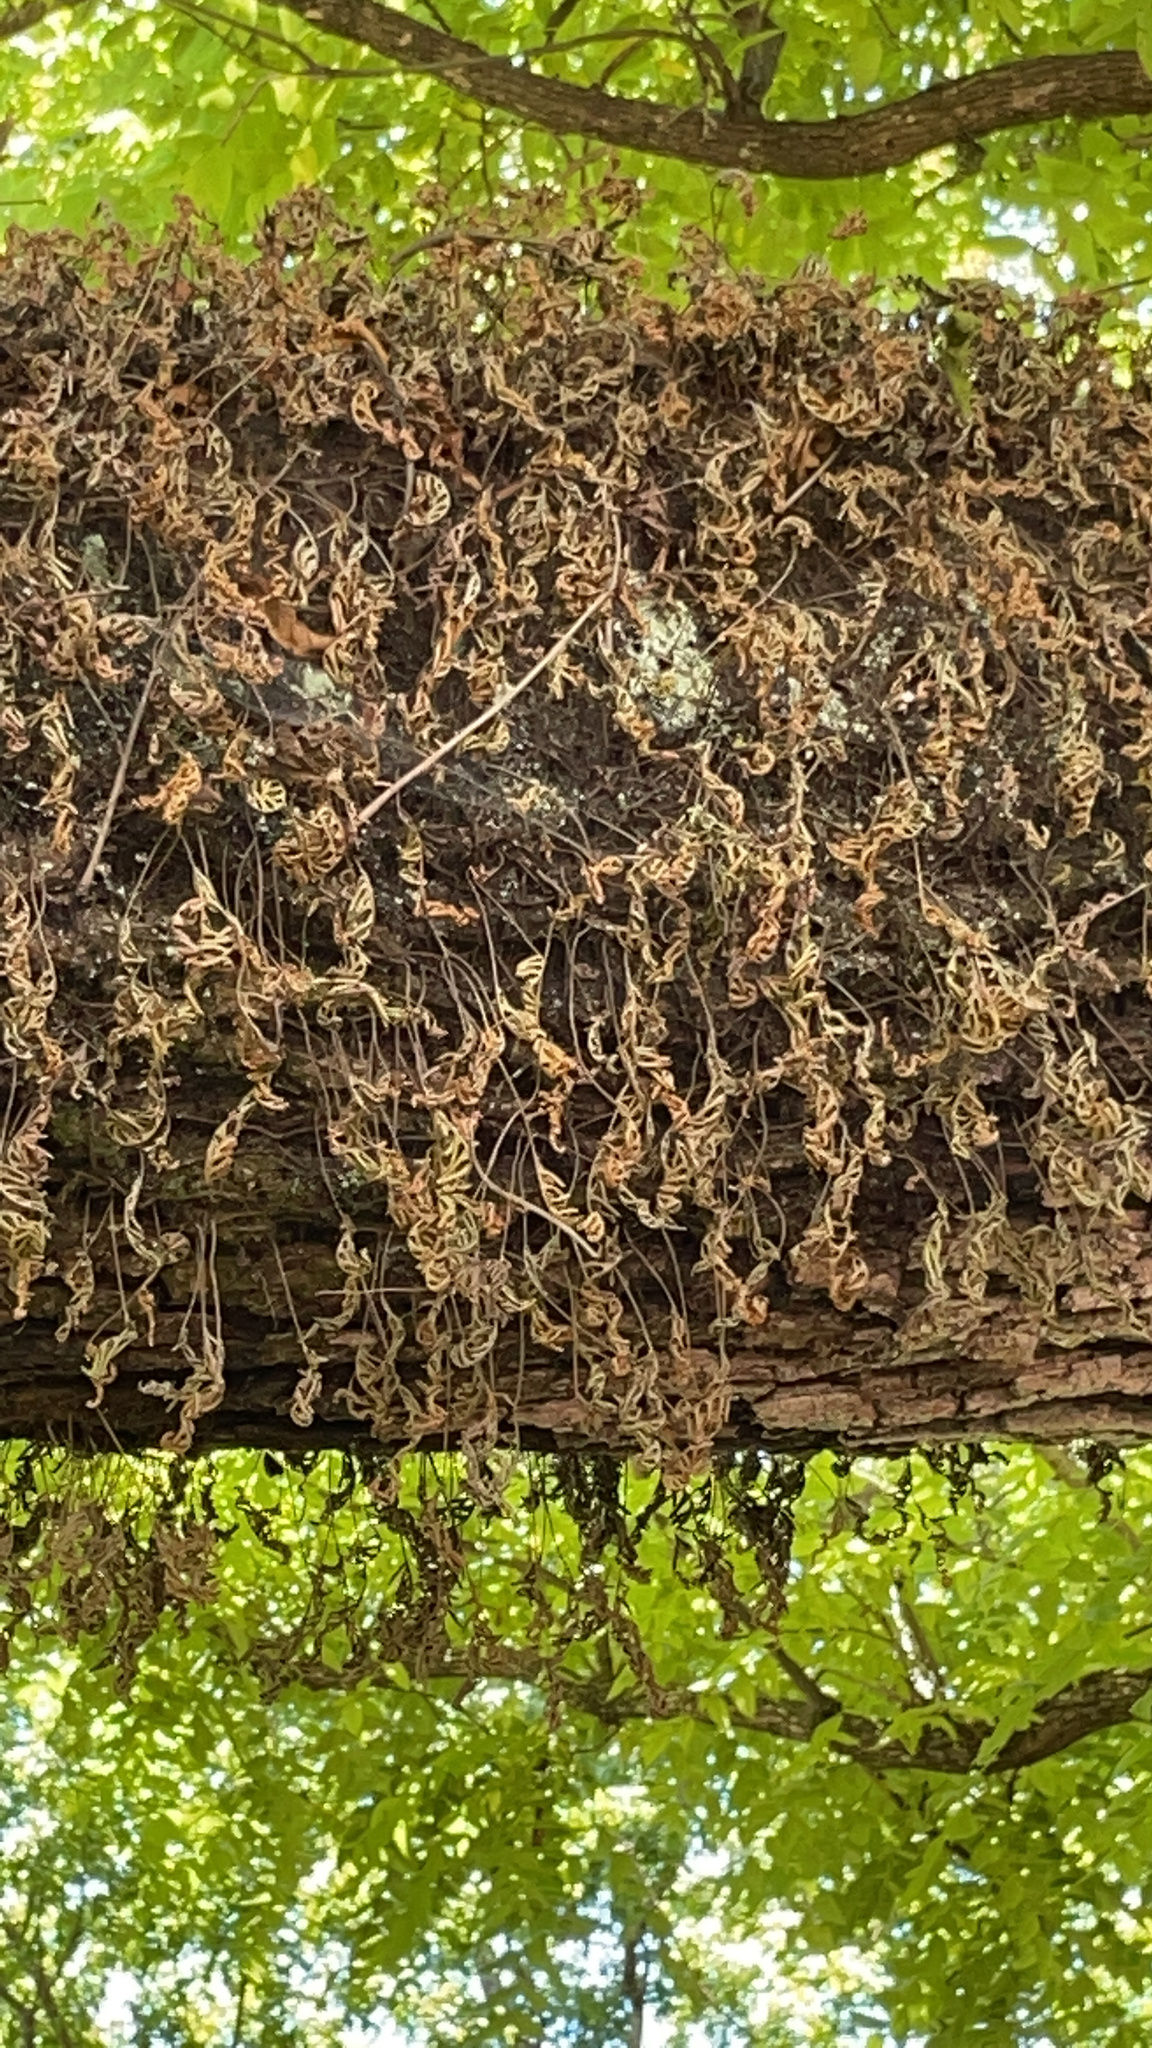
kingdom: Plantae
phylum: Tracheophyta
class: Polypodiopsida
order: Polypodiales
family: Polypodiaceae
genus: Pleopeltis
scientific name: Pleopeltis michauxiana
